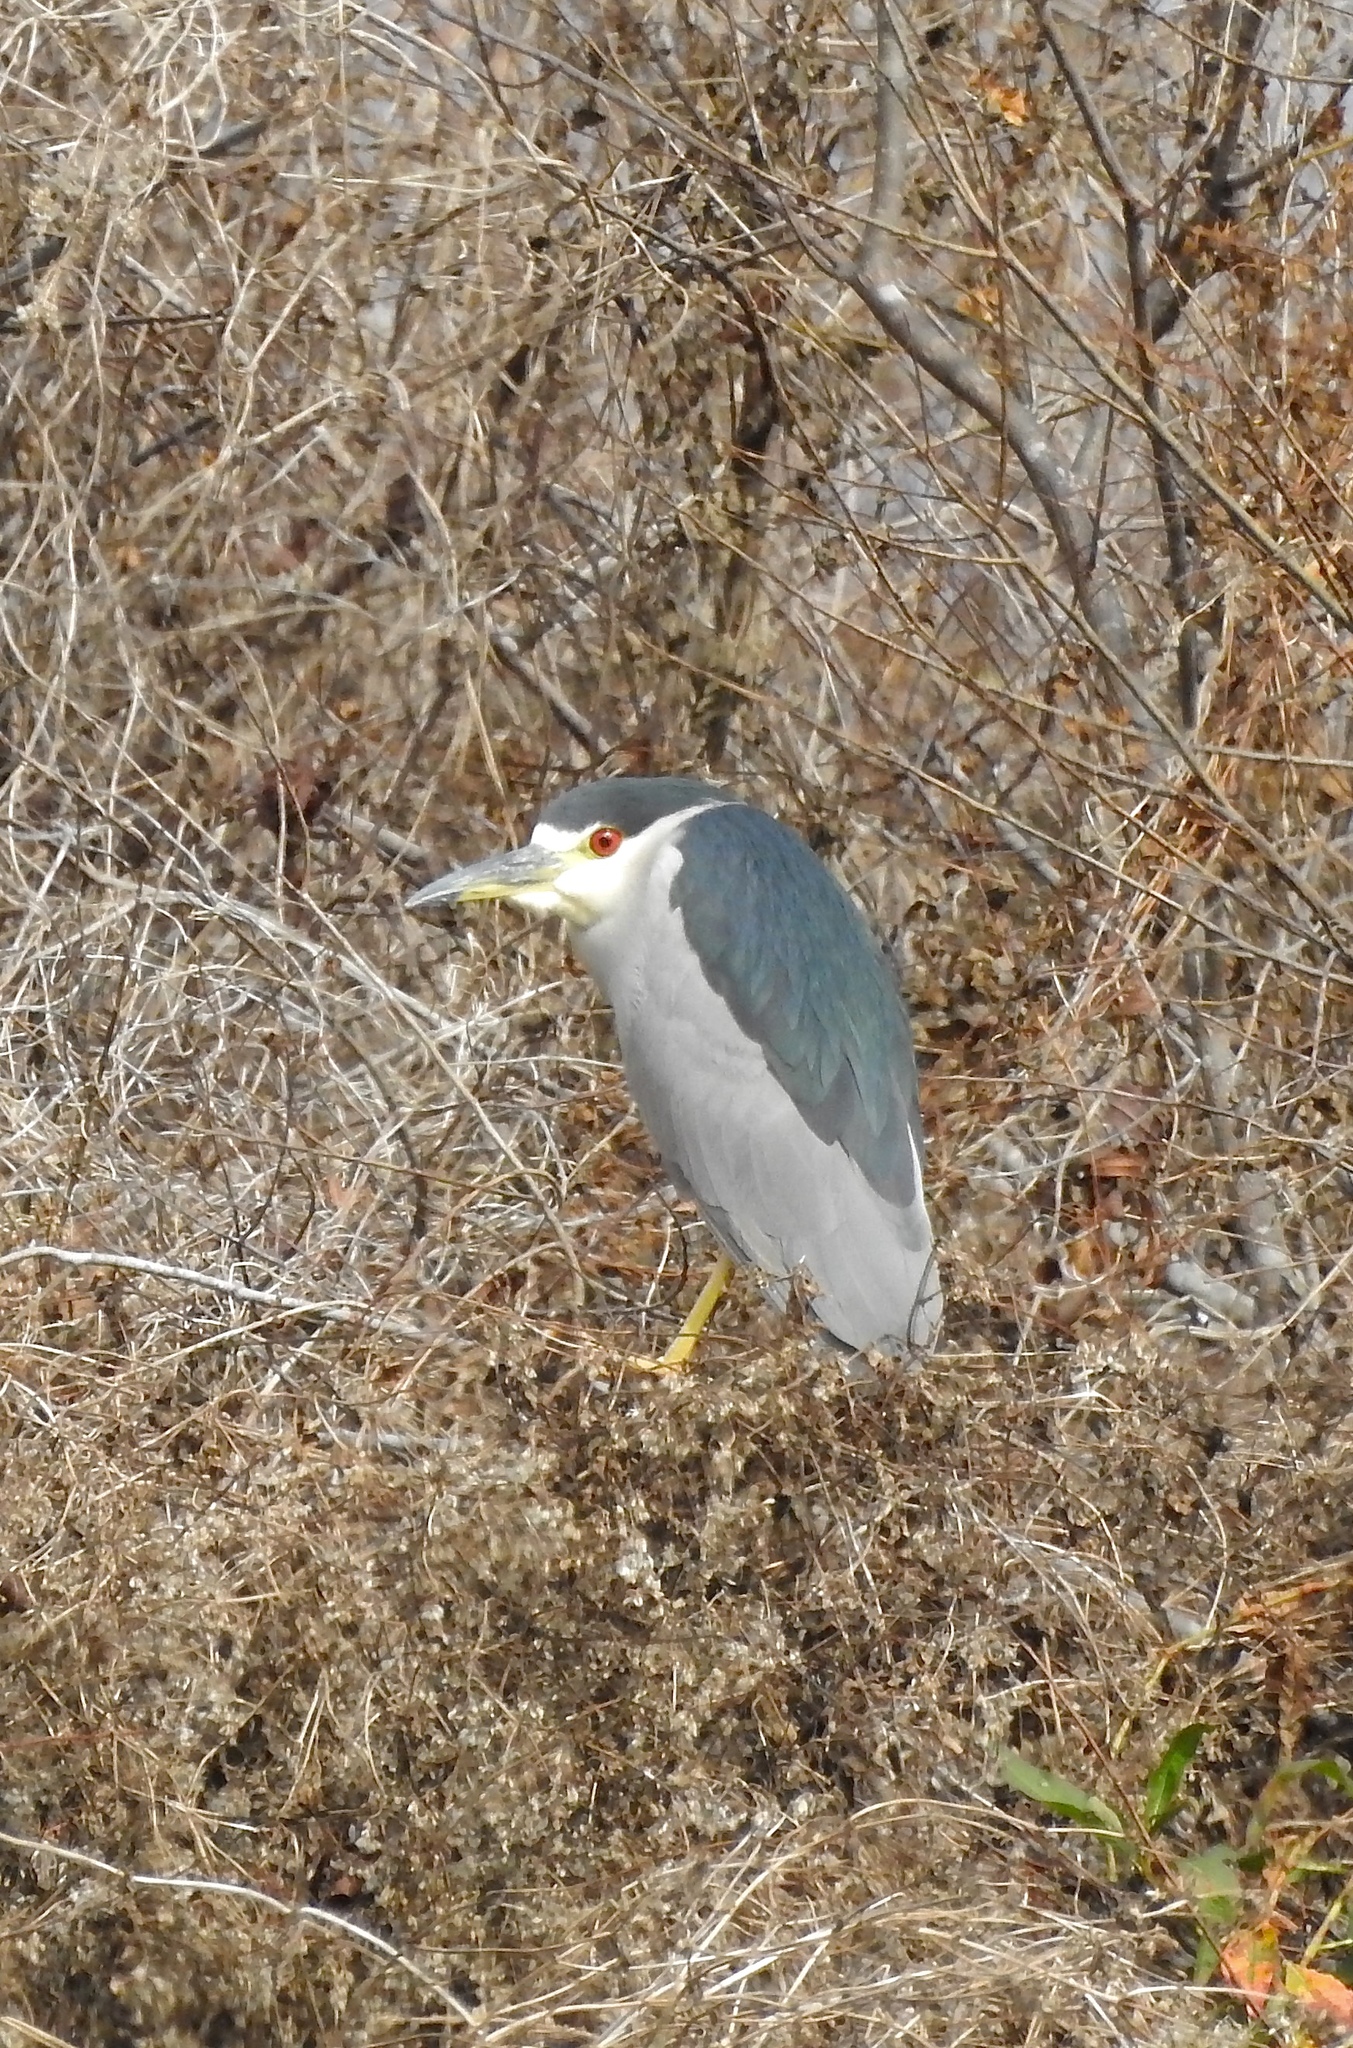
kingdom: Animalia
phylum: Chordata
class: Aves
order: Pelecaniformes
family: Ardeidae
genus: Nycticorax
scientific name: Nycticorax nycticorax
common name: Black-crowned night heron
